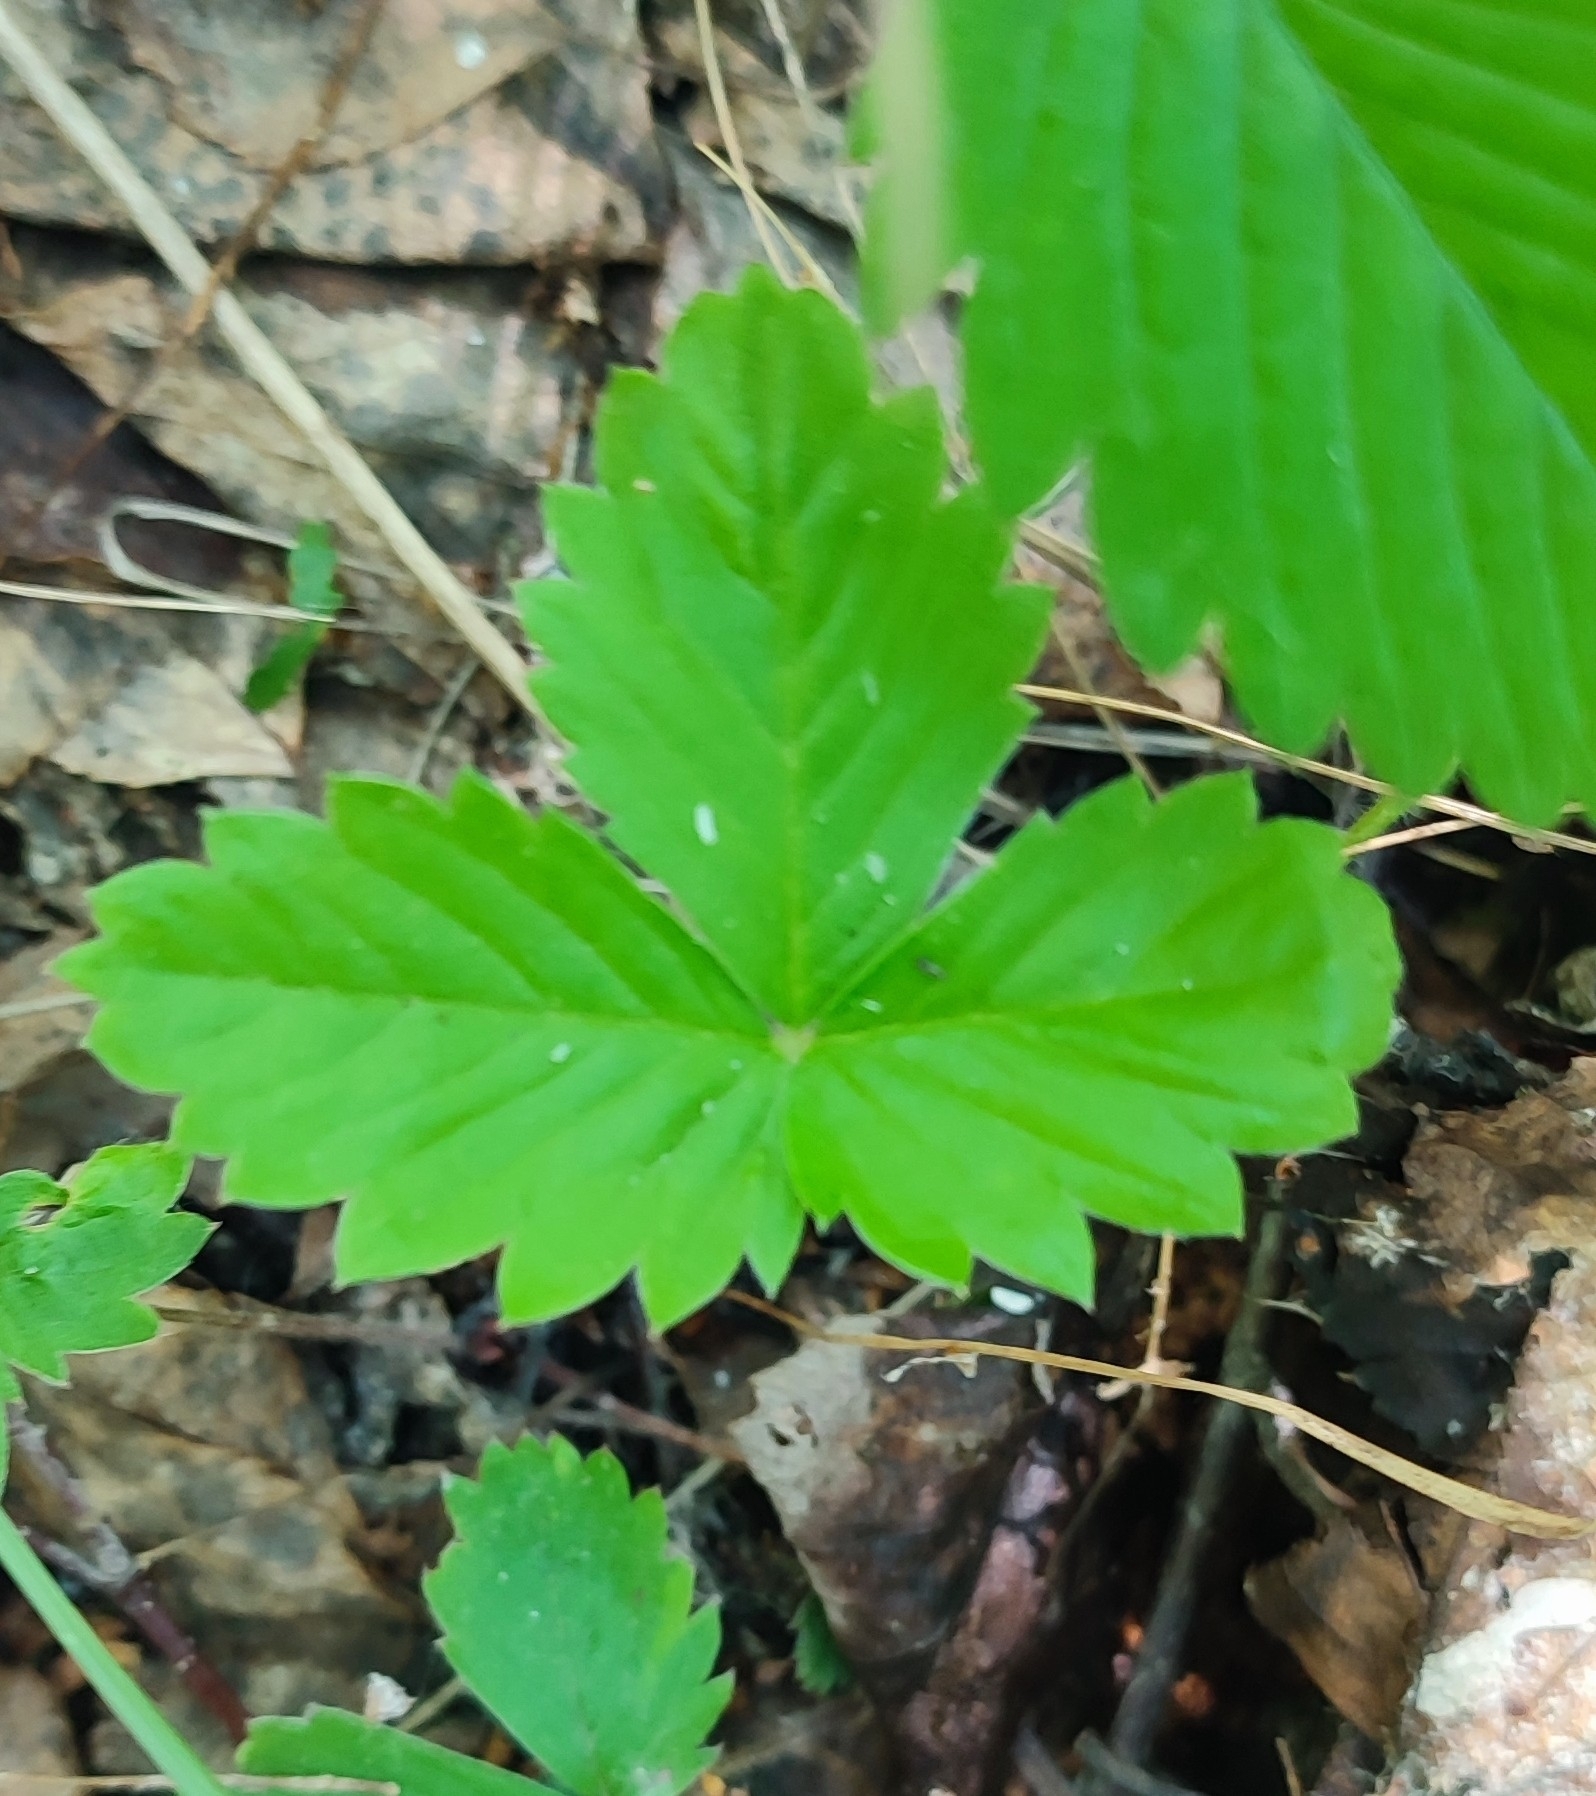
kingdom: Plantae
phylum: Tracheophyta
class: Magnoliopsida
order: Rosales
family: Rosaceae
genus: Fragaria
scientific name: Fragaria vesca
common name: Wild strawberry
